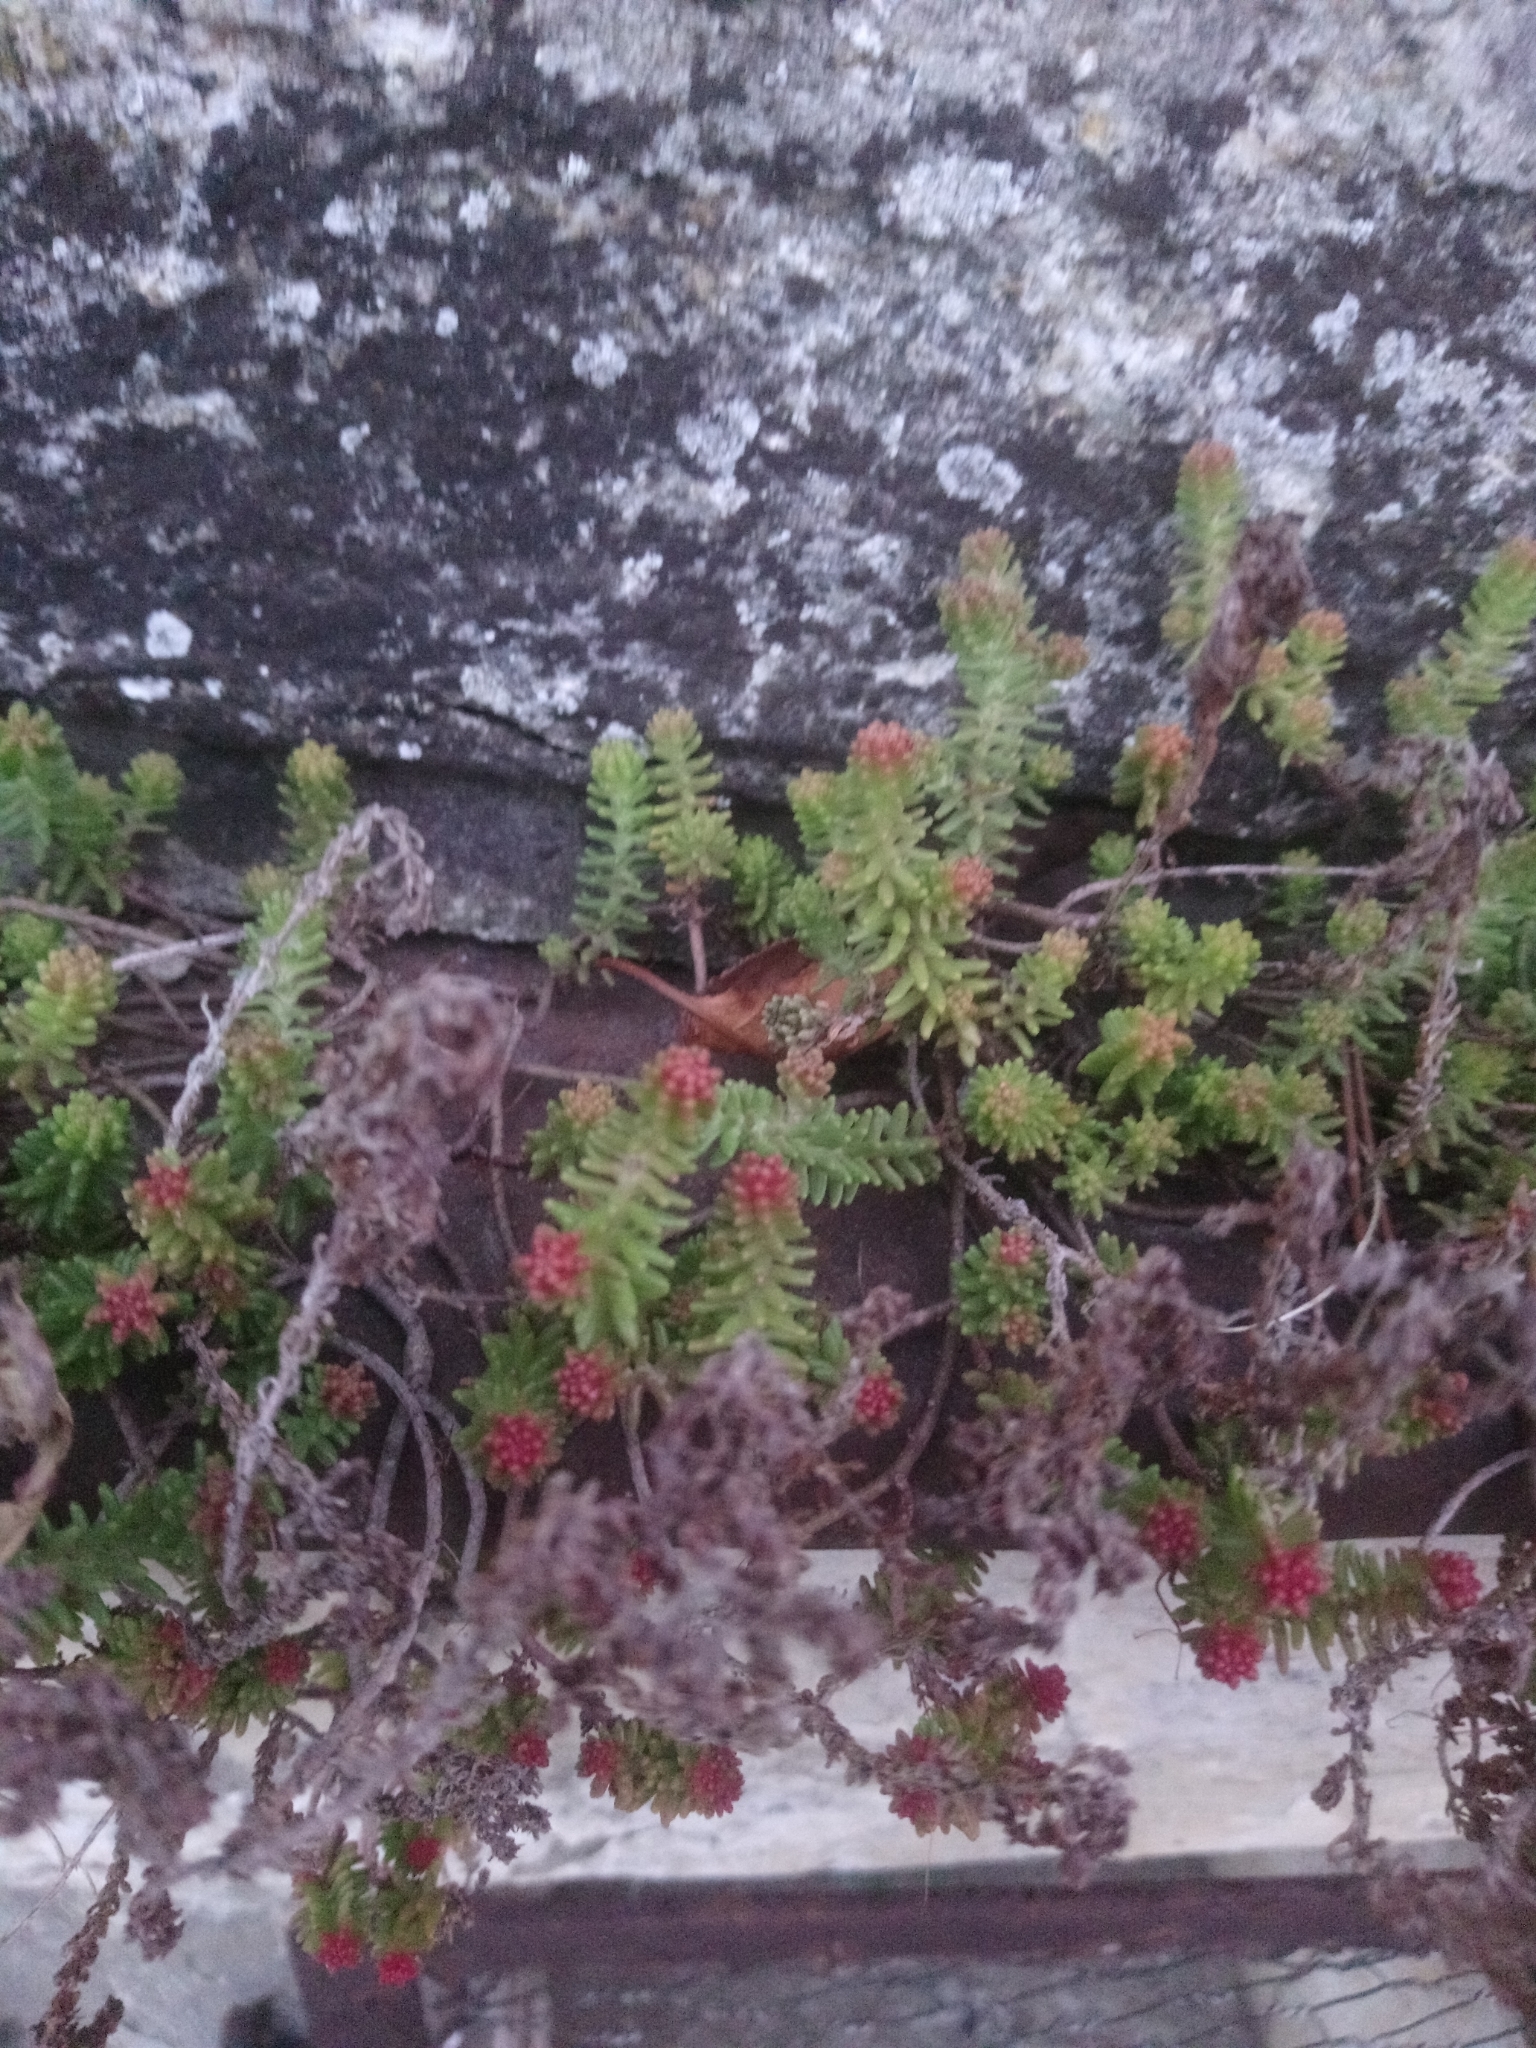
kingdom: Plantae
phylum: Tracheophyta
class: Magnoliopsida
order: Saxifragales
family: Crassulaceae
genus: Sedum
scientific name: Sedum sexangulare
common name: Tasteless stonecrop
